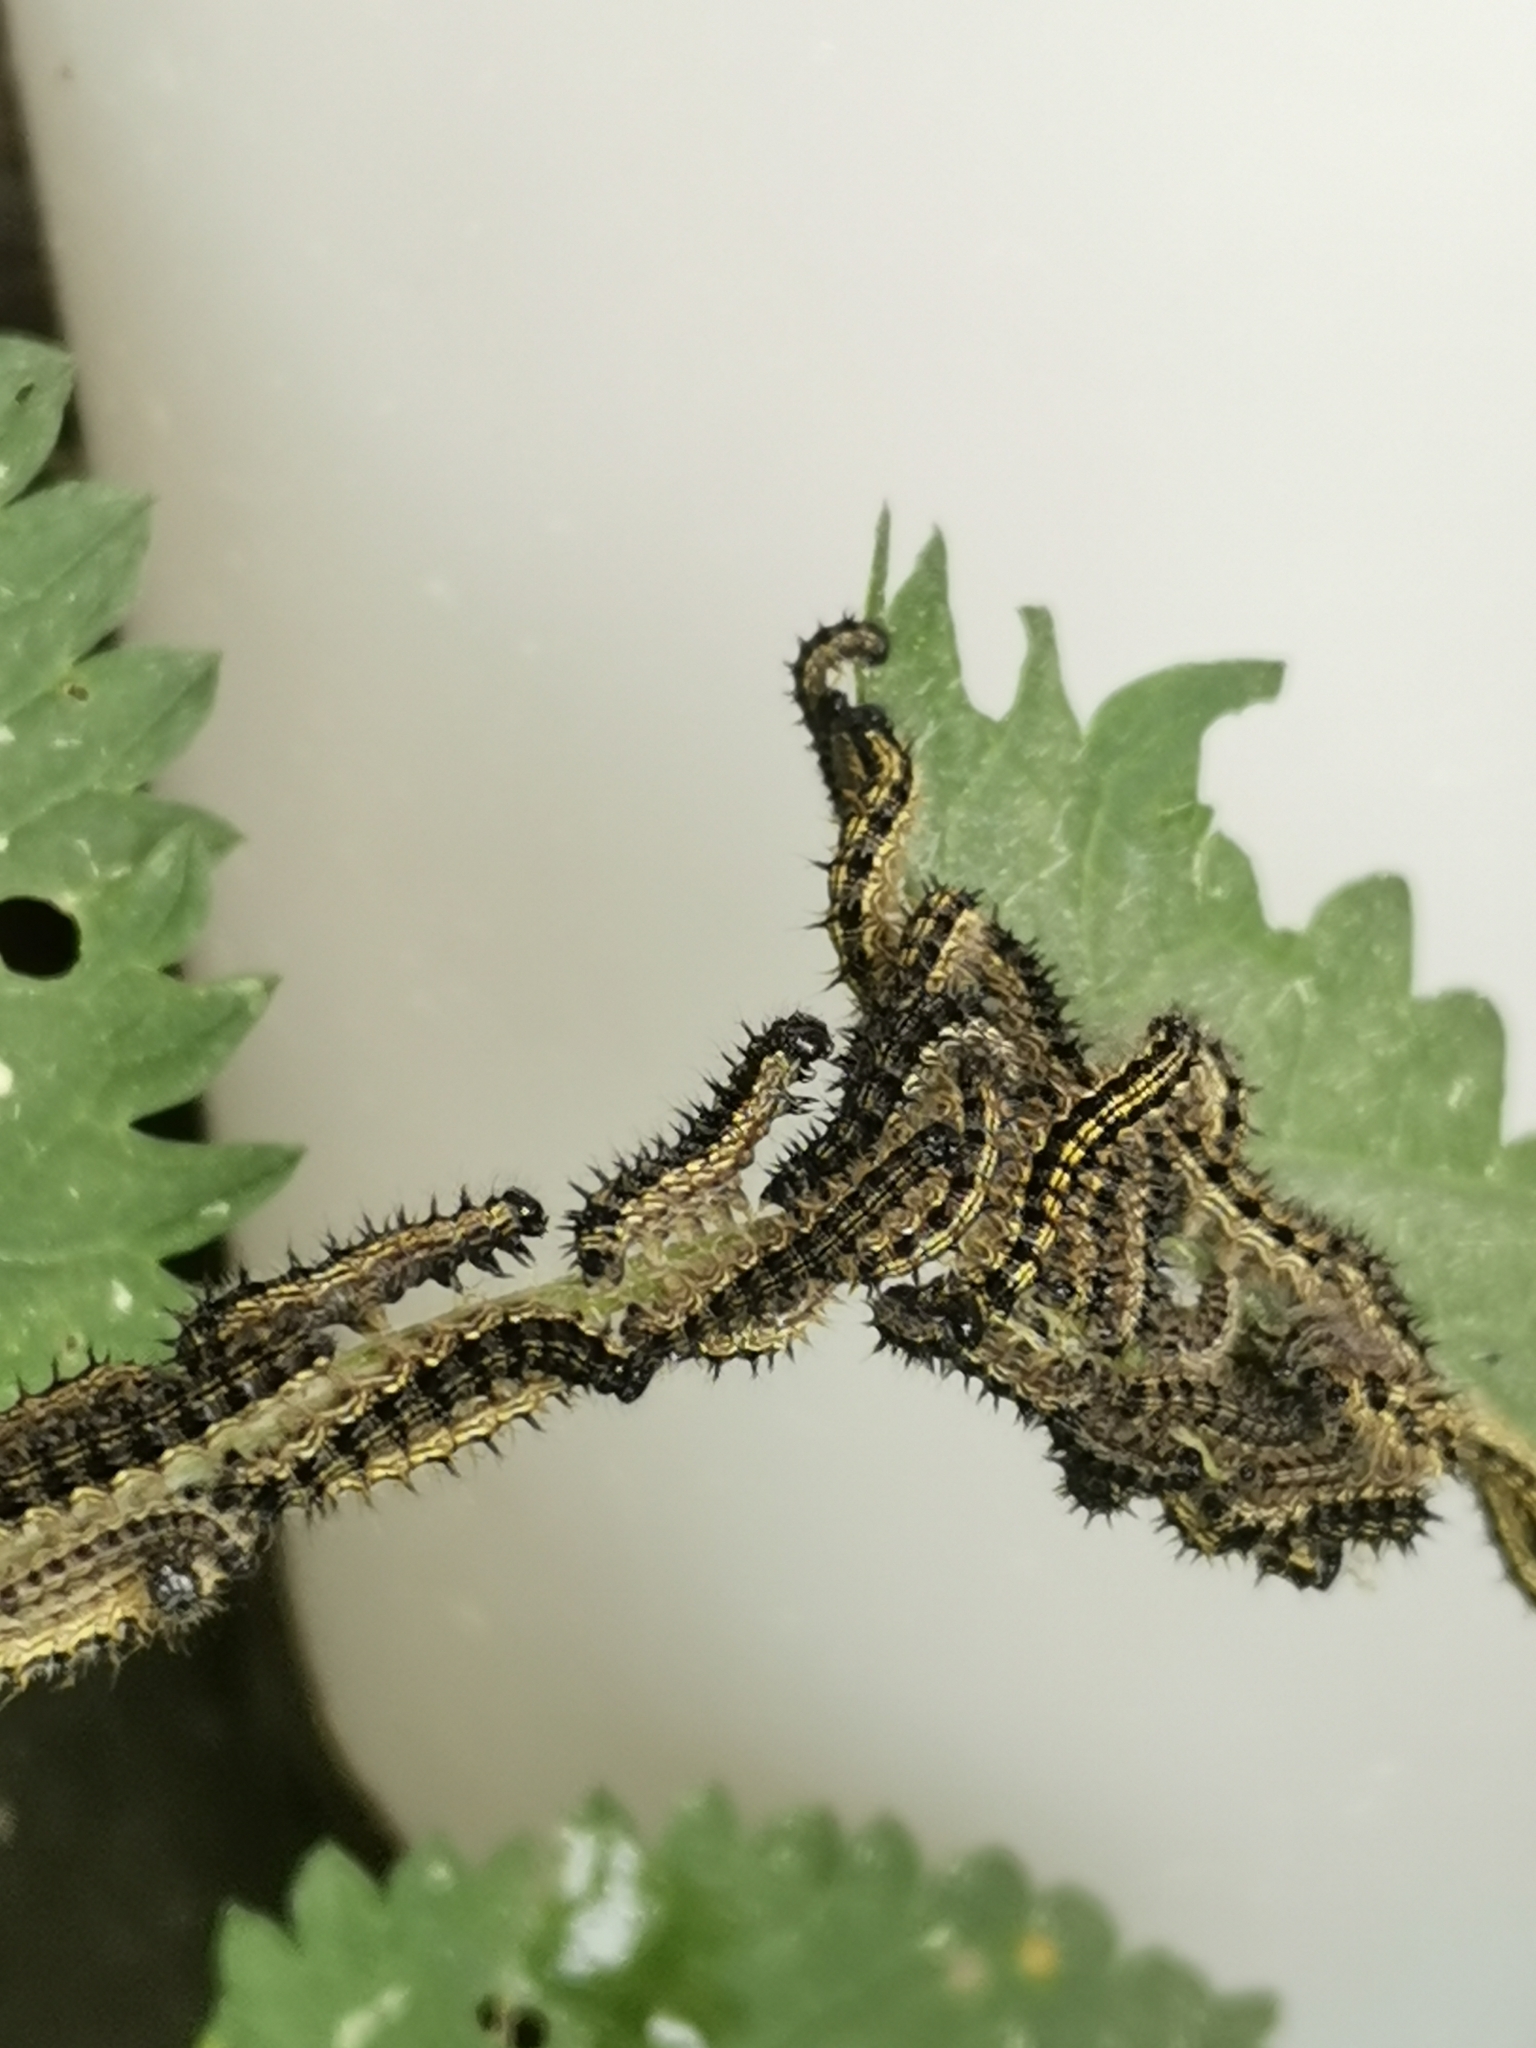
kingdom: Animalia
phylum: Arthropoda
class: Insecta
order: Lepidoptera
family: Nymphalidae
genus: Aglais
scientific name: Aglais urticae
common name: Small tortoiseshell
